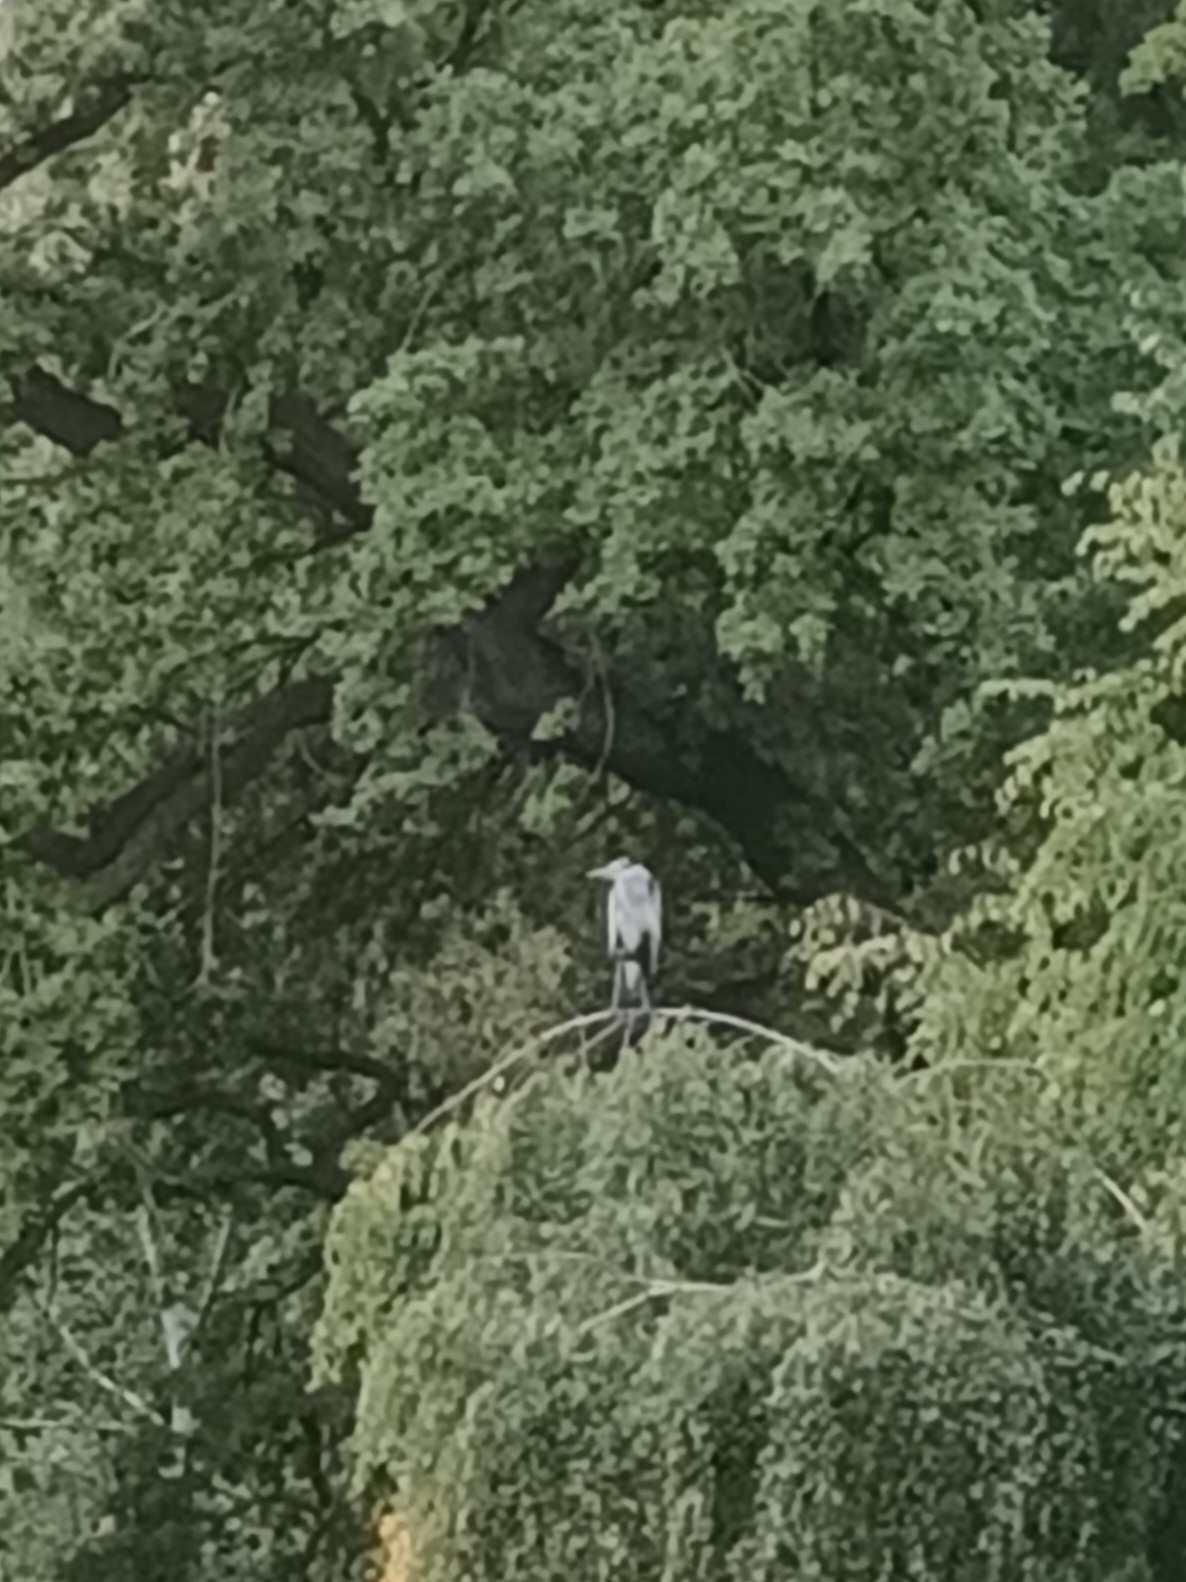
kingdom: Animalia
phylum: Chordata
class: Aves
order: Pelecaniformes
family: Ardeidae
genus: Ardea
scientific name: Ardea cinerea
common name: Grey heron
